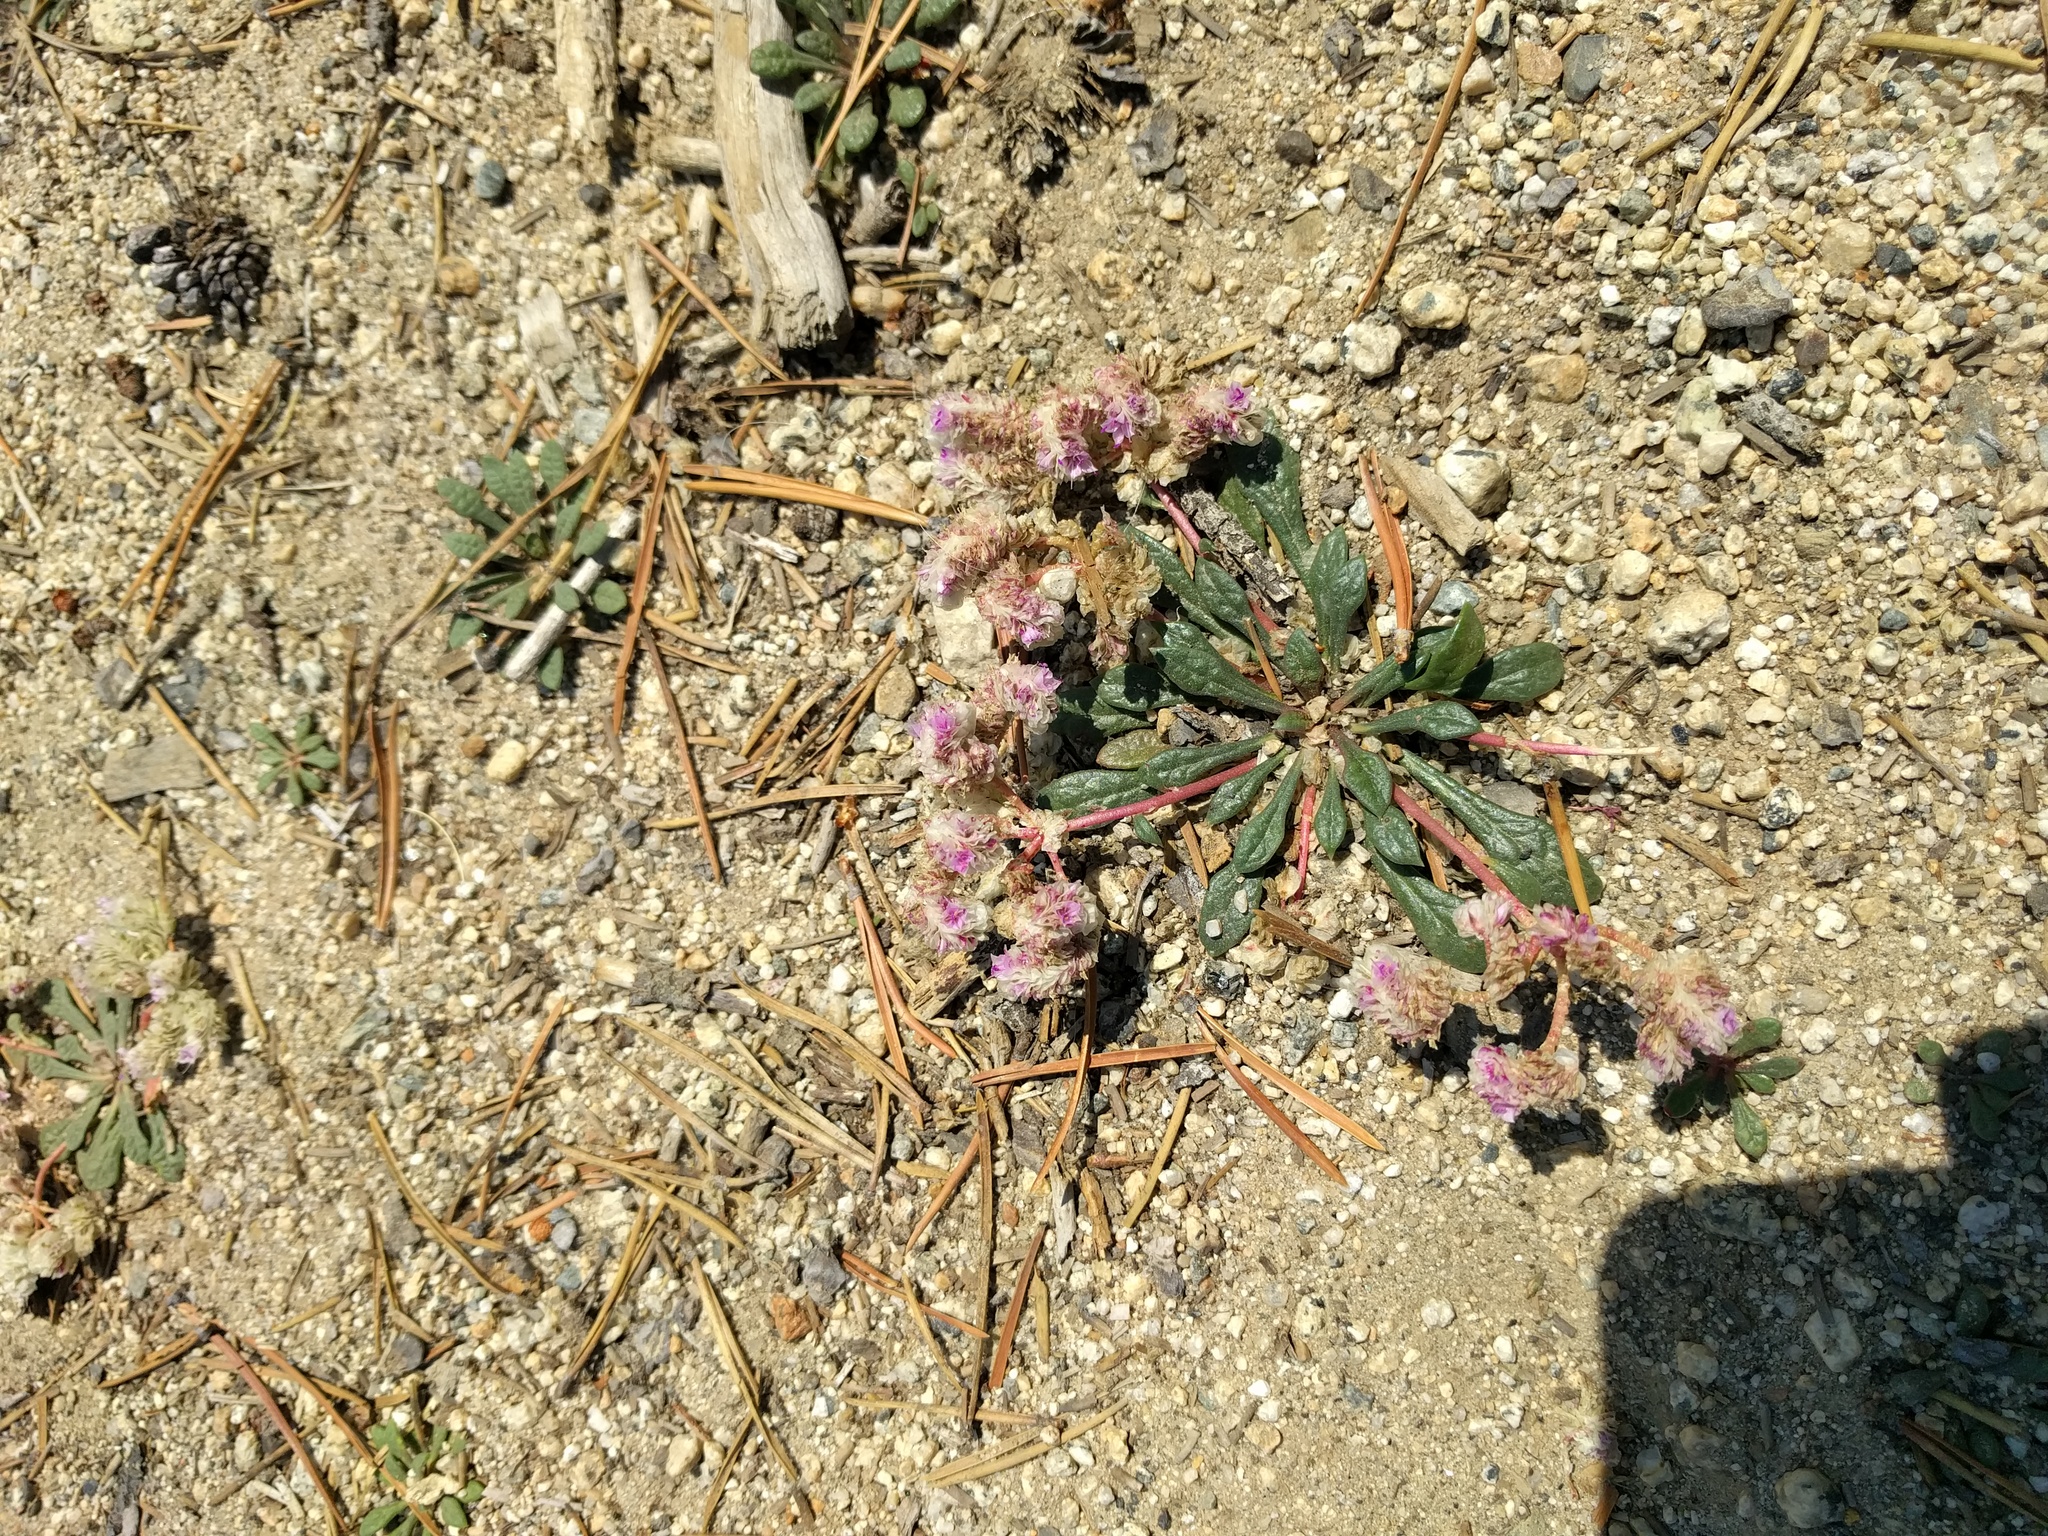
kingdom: Plantae
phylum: Tracheophyta
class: Magnoliopsida
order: Caryophyllales
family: Montiaceae
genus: Calyptridium
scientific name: Calyptridium monospermum
